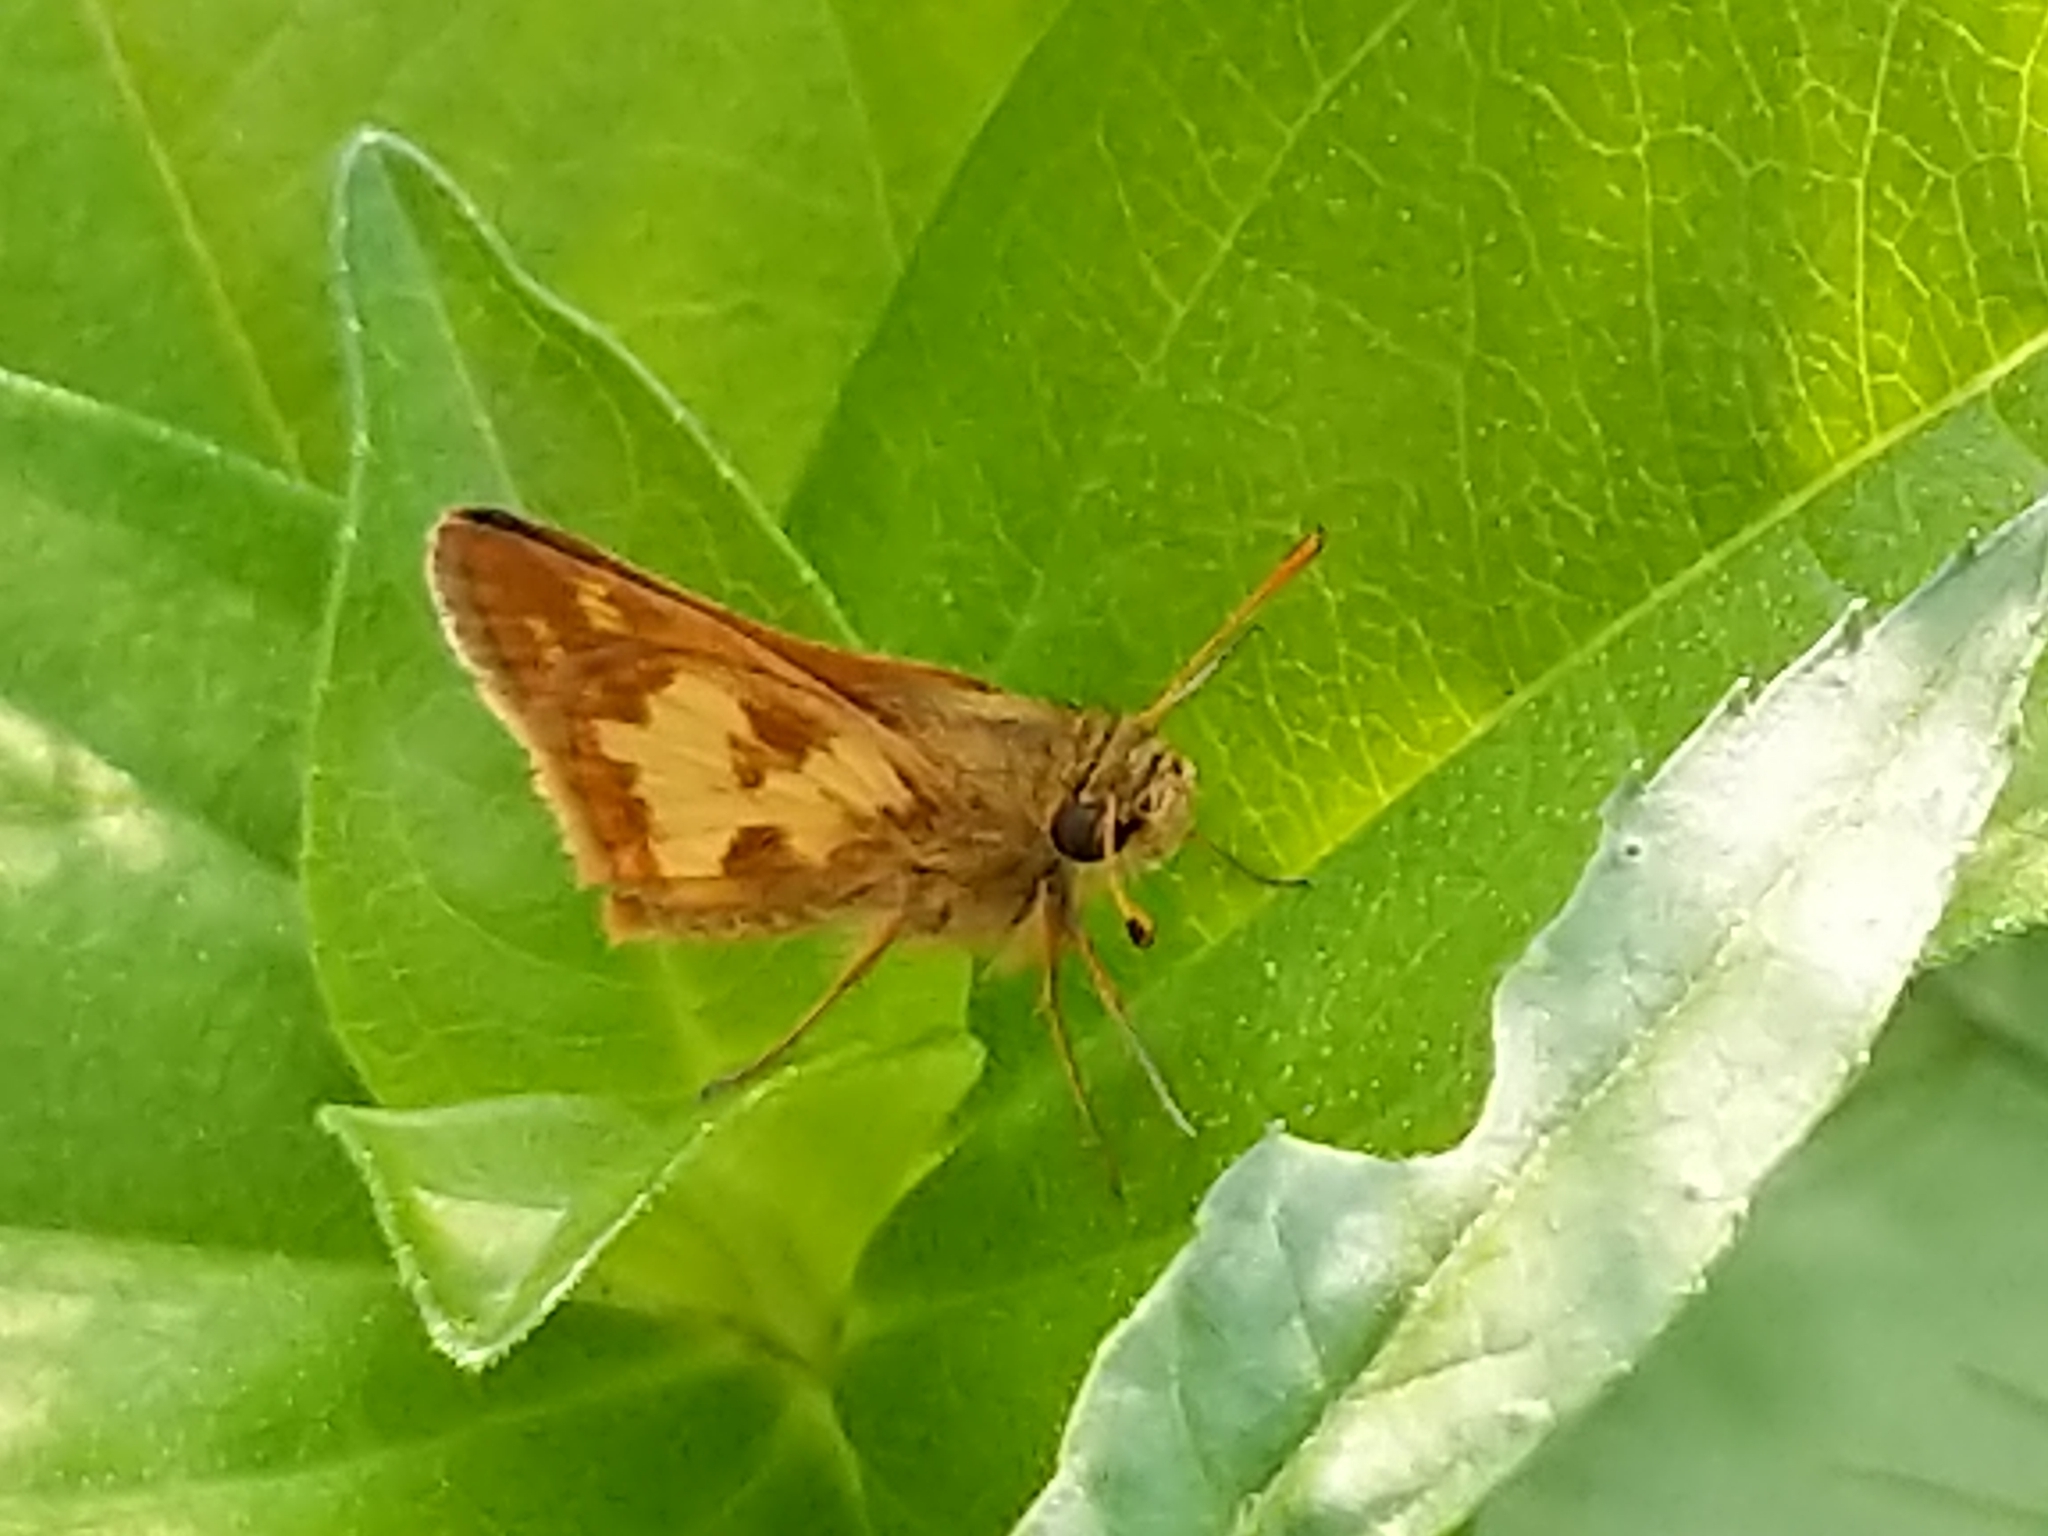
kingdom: Animalia
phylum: Arthropoda
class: Insecta
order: Lepidoptera
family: Hesperiidae
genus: Polites
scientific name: Polites coras
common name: Peck's skipper
